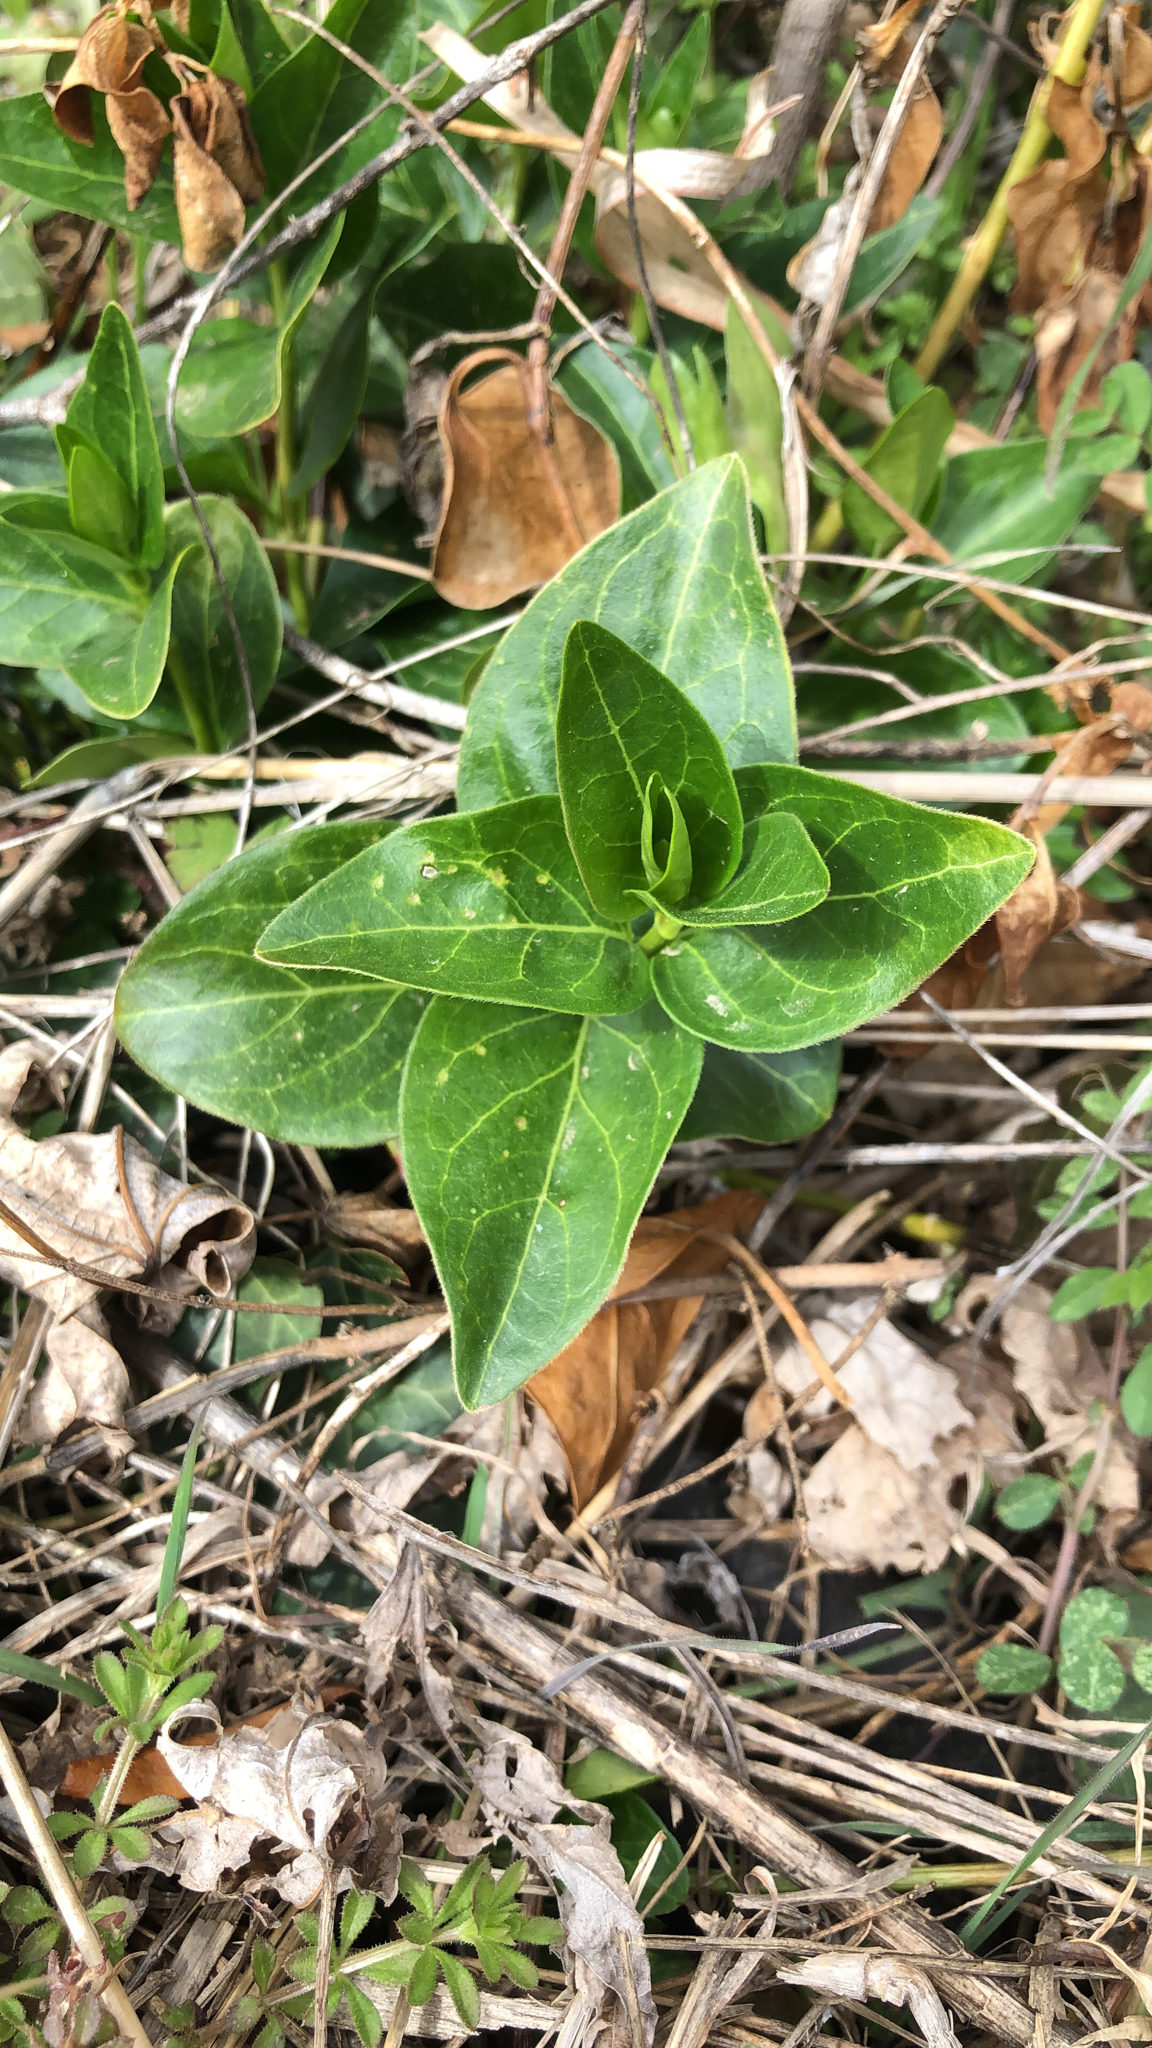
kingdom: Plantae
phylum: Tracheophyta
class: Magnoliopsida
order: Gentianales
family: Apocynaceae
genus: Vinca
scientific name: Vinca major
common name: Greater periwinkle
